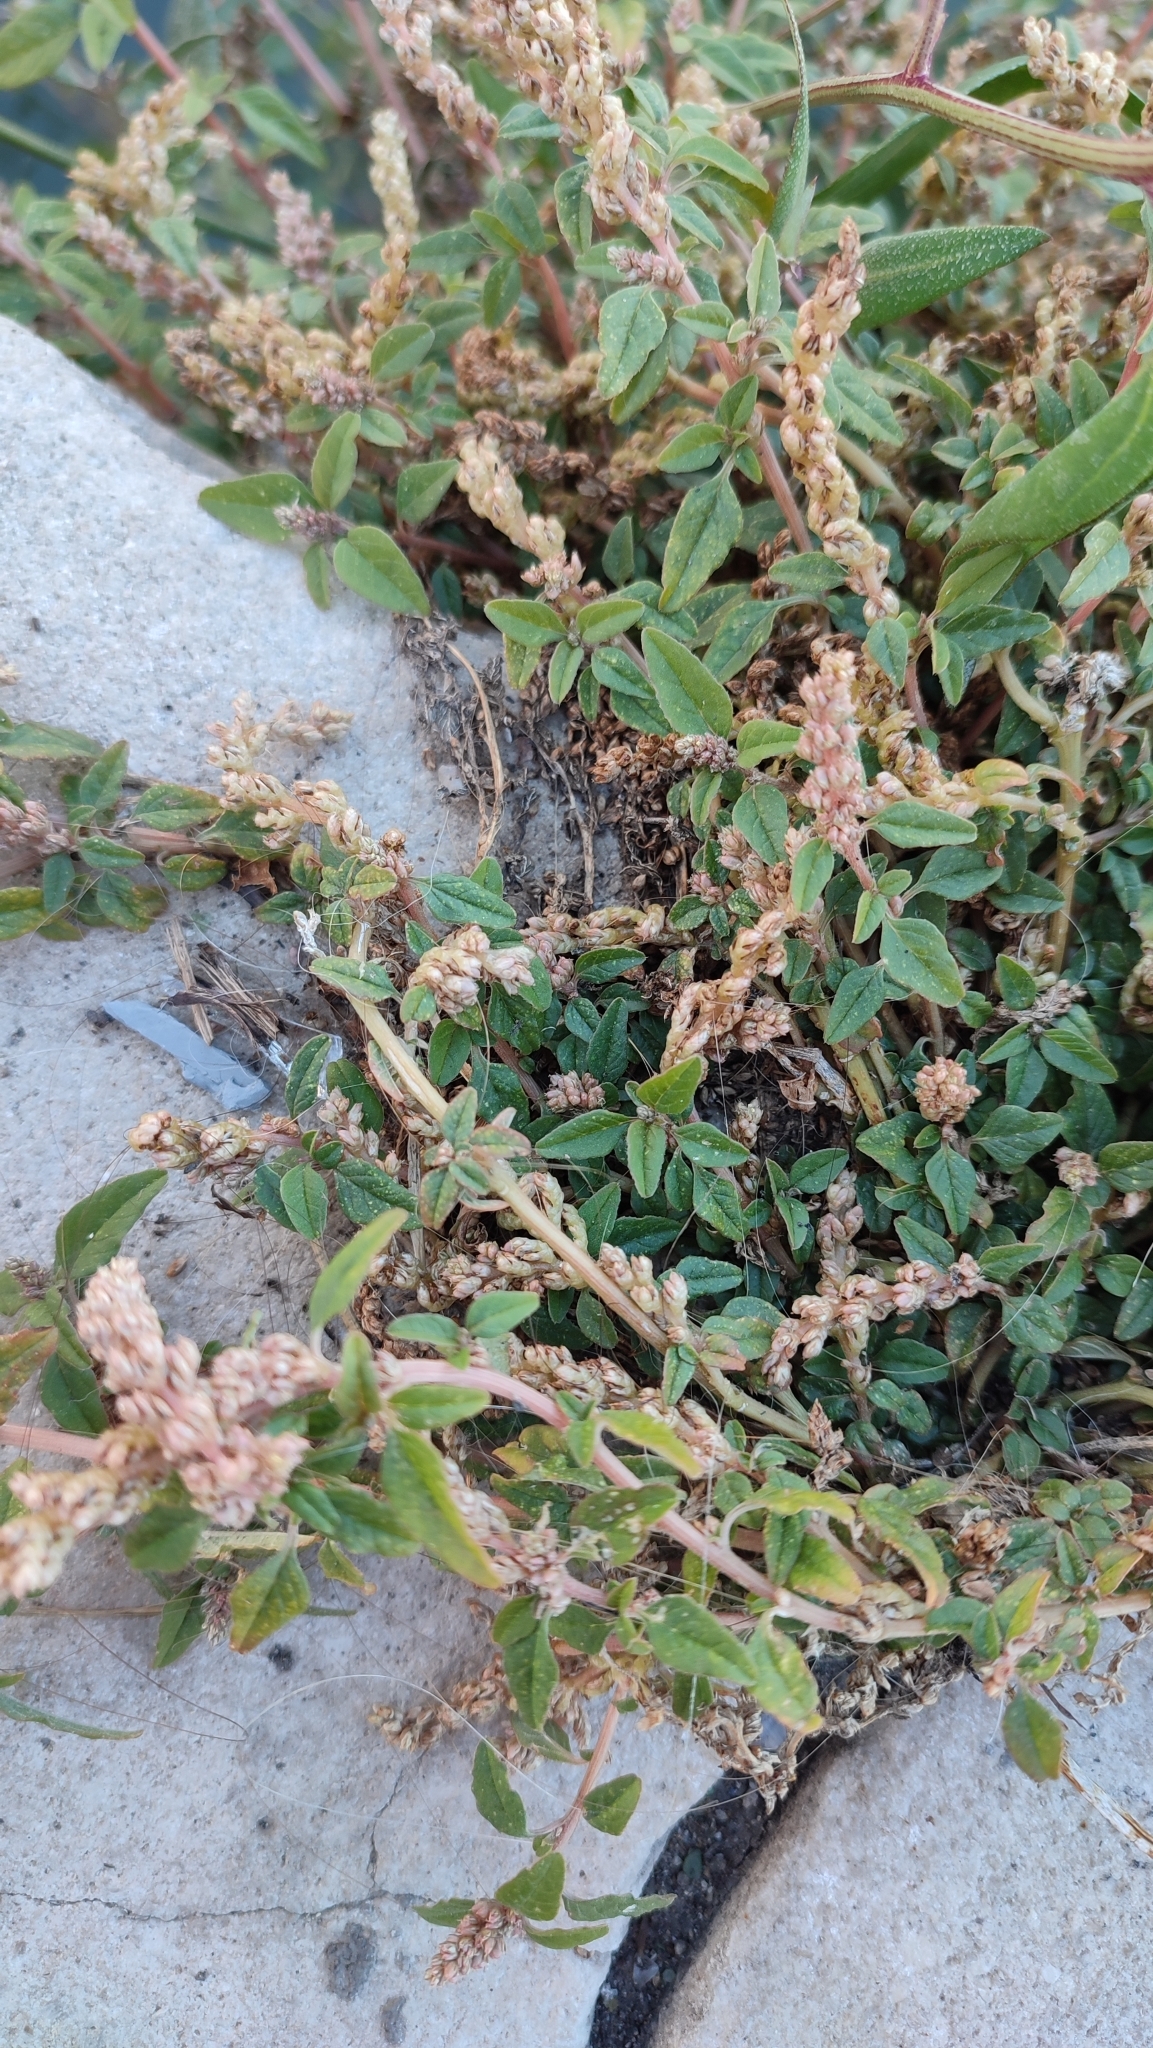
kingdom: Plantae
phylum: Tracheophyta
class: Magnoliopsida
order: Caryophyllales
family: Amaranthaceae
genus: Amaranthus
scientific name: Amaranthus deflexus
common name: Perennial pigweed
